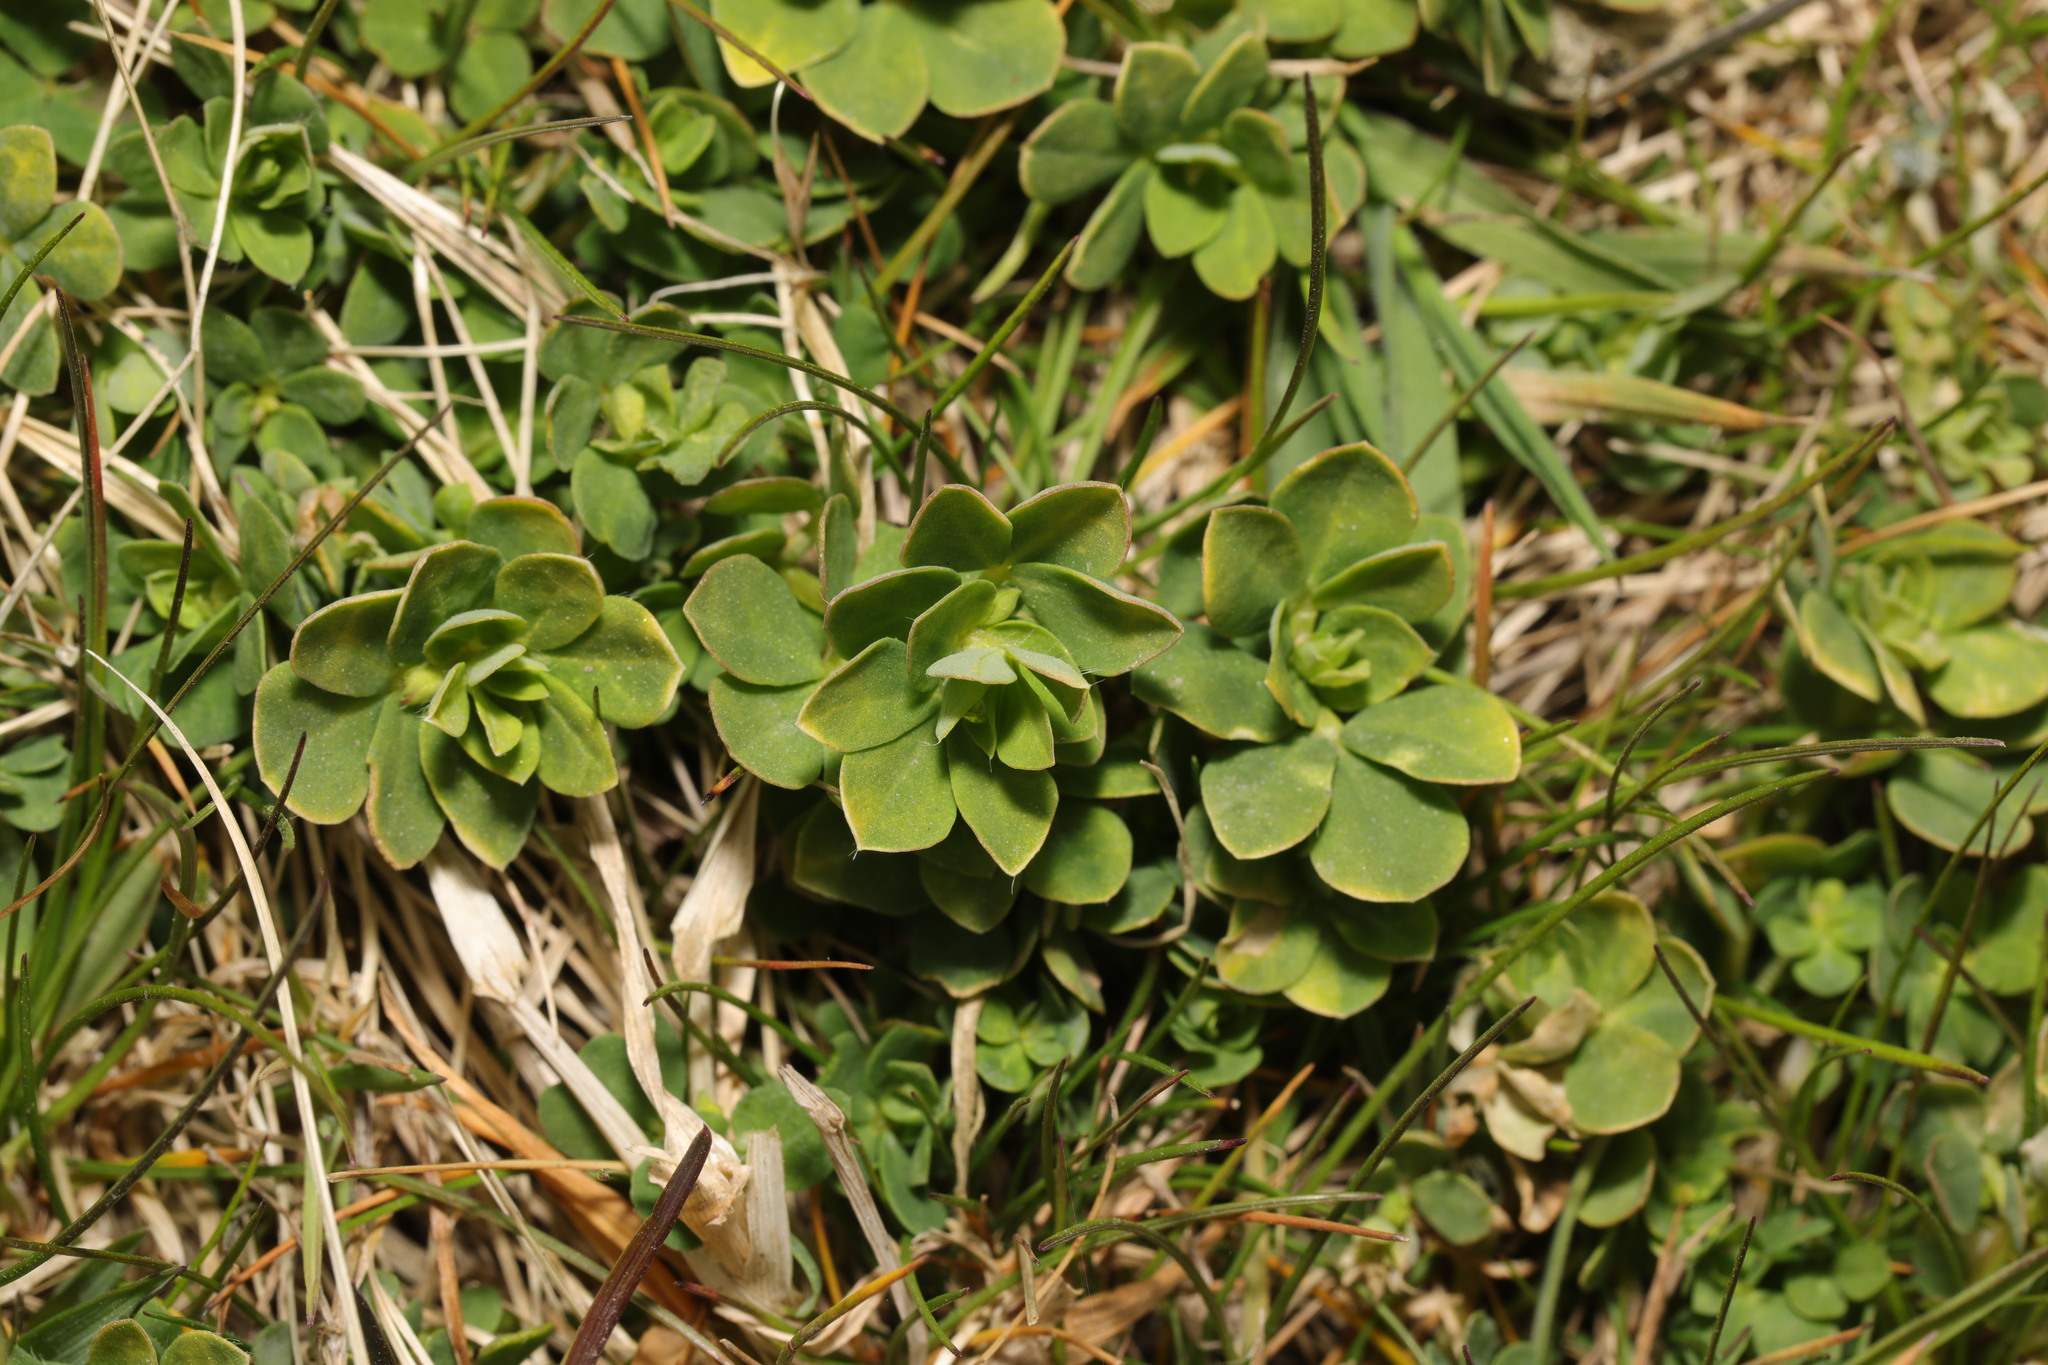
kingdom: Plantae
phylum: Tracheophyta
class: Magnoliopsida
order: Fabales
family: Fabaceae
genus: Lotus
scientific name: Lotus corniculatus
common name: Common bird's-foot-trefoil
